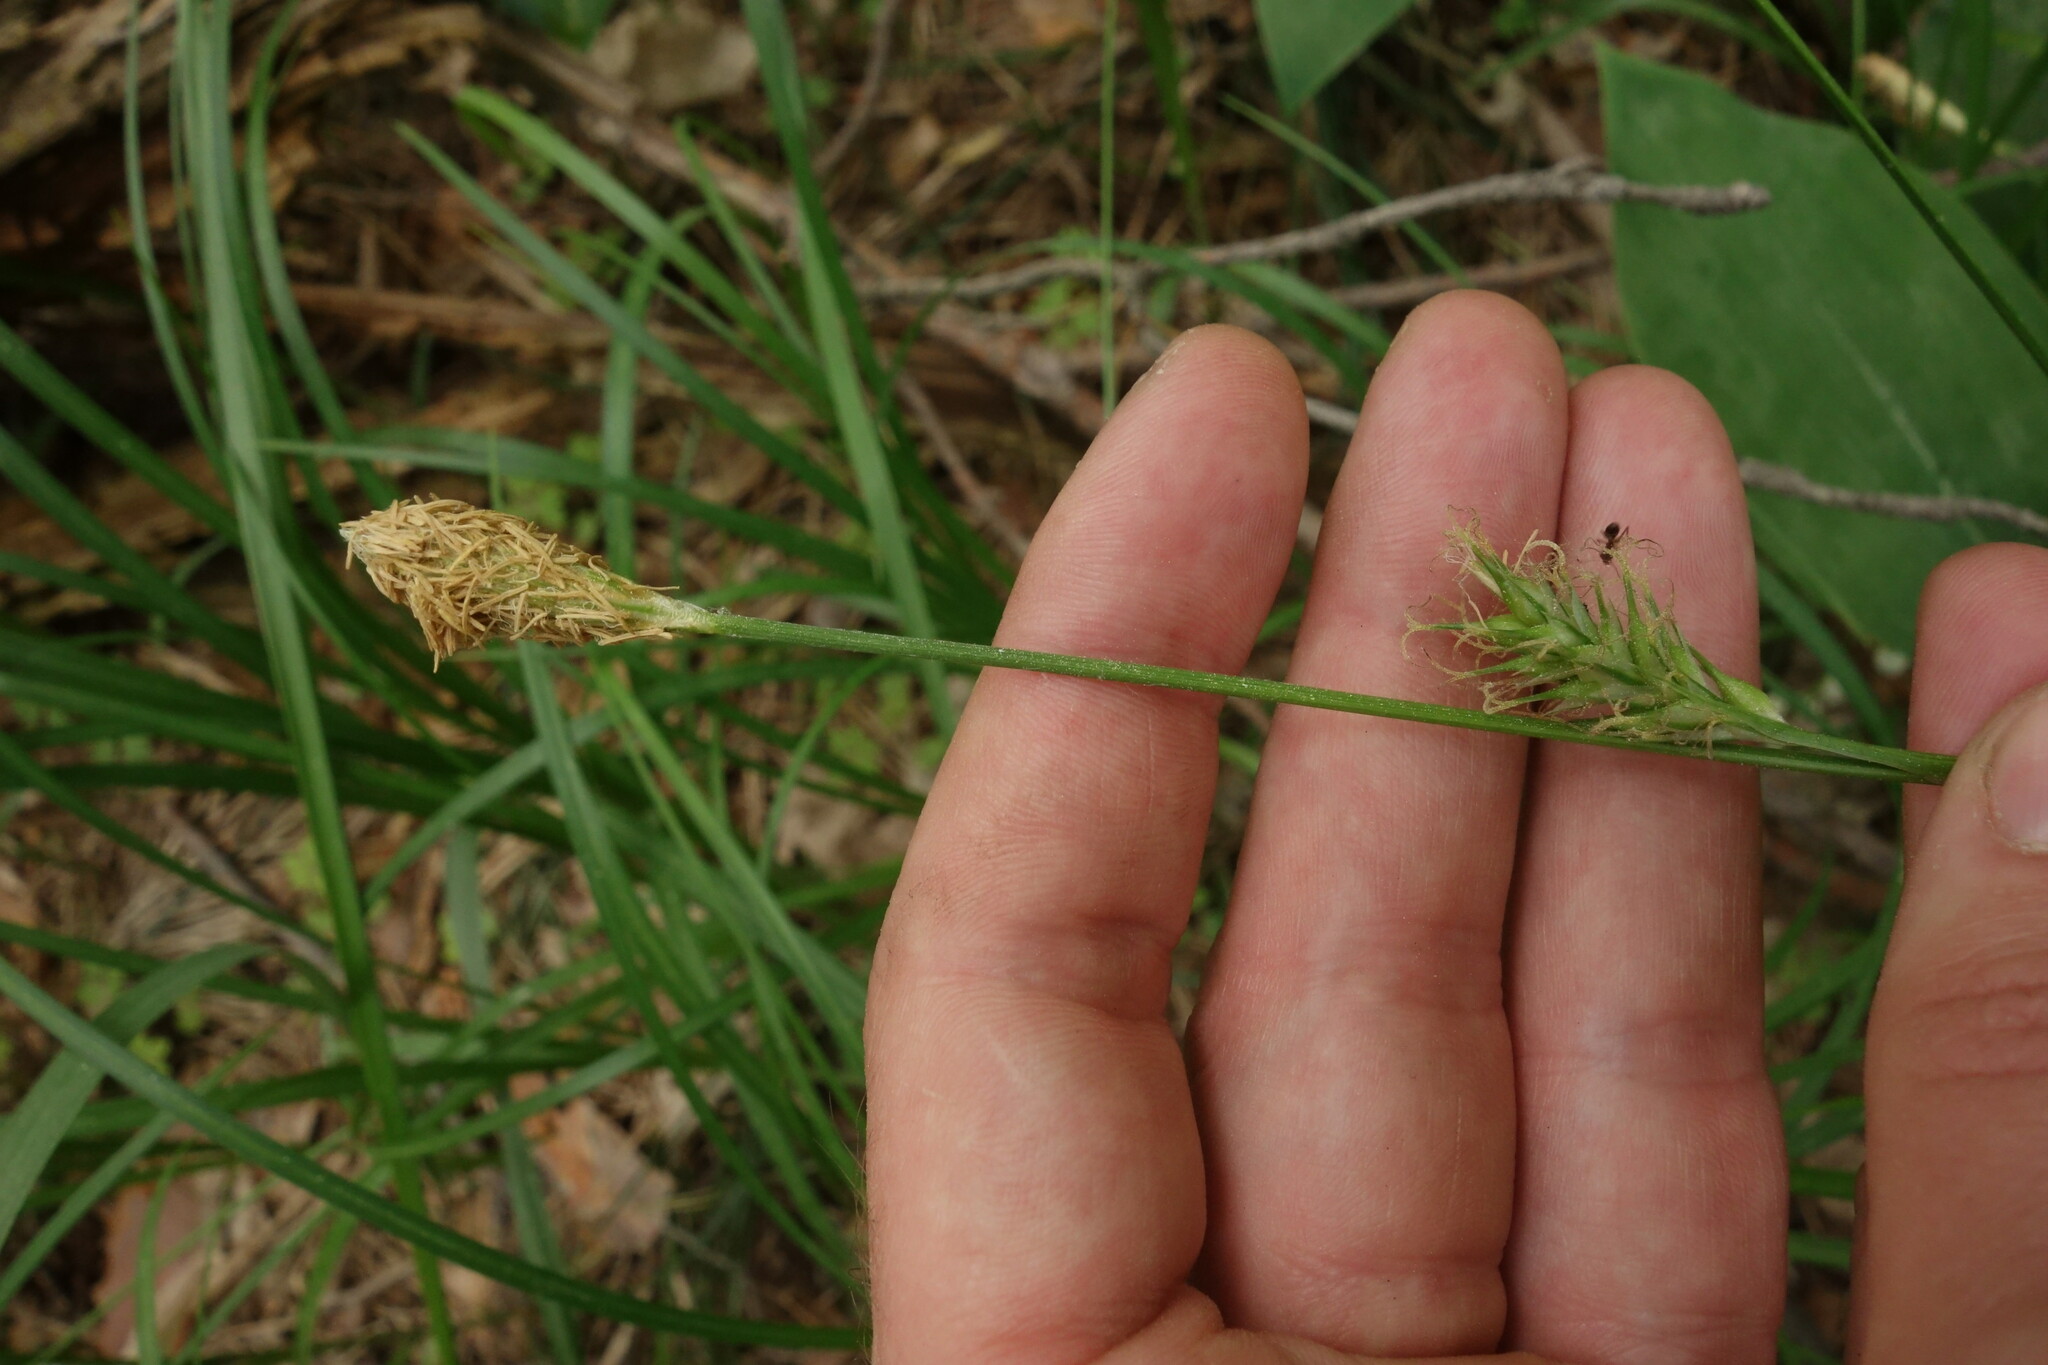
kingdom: Plantae
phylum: Tracheophyta
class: Liliopsida
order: Poales
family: Cyperaceae
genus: Carex
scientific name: Carex michelii
